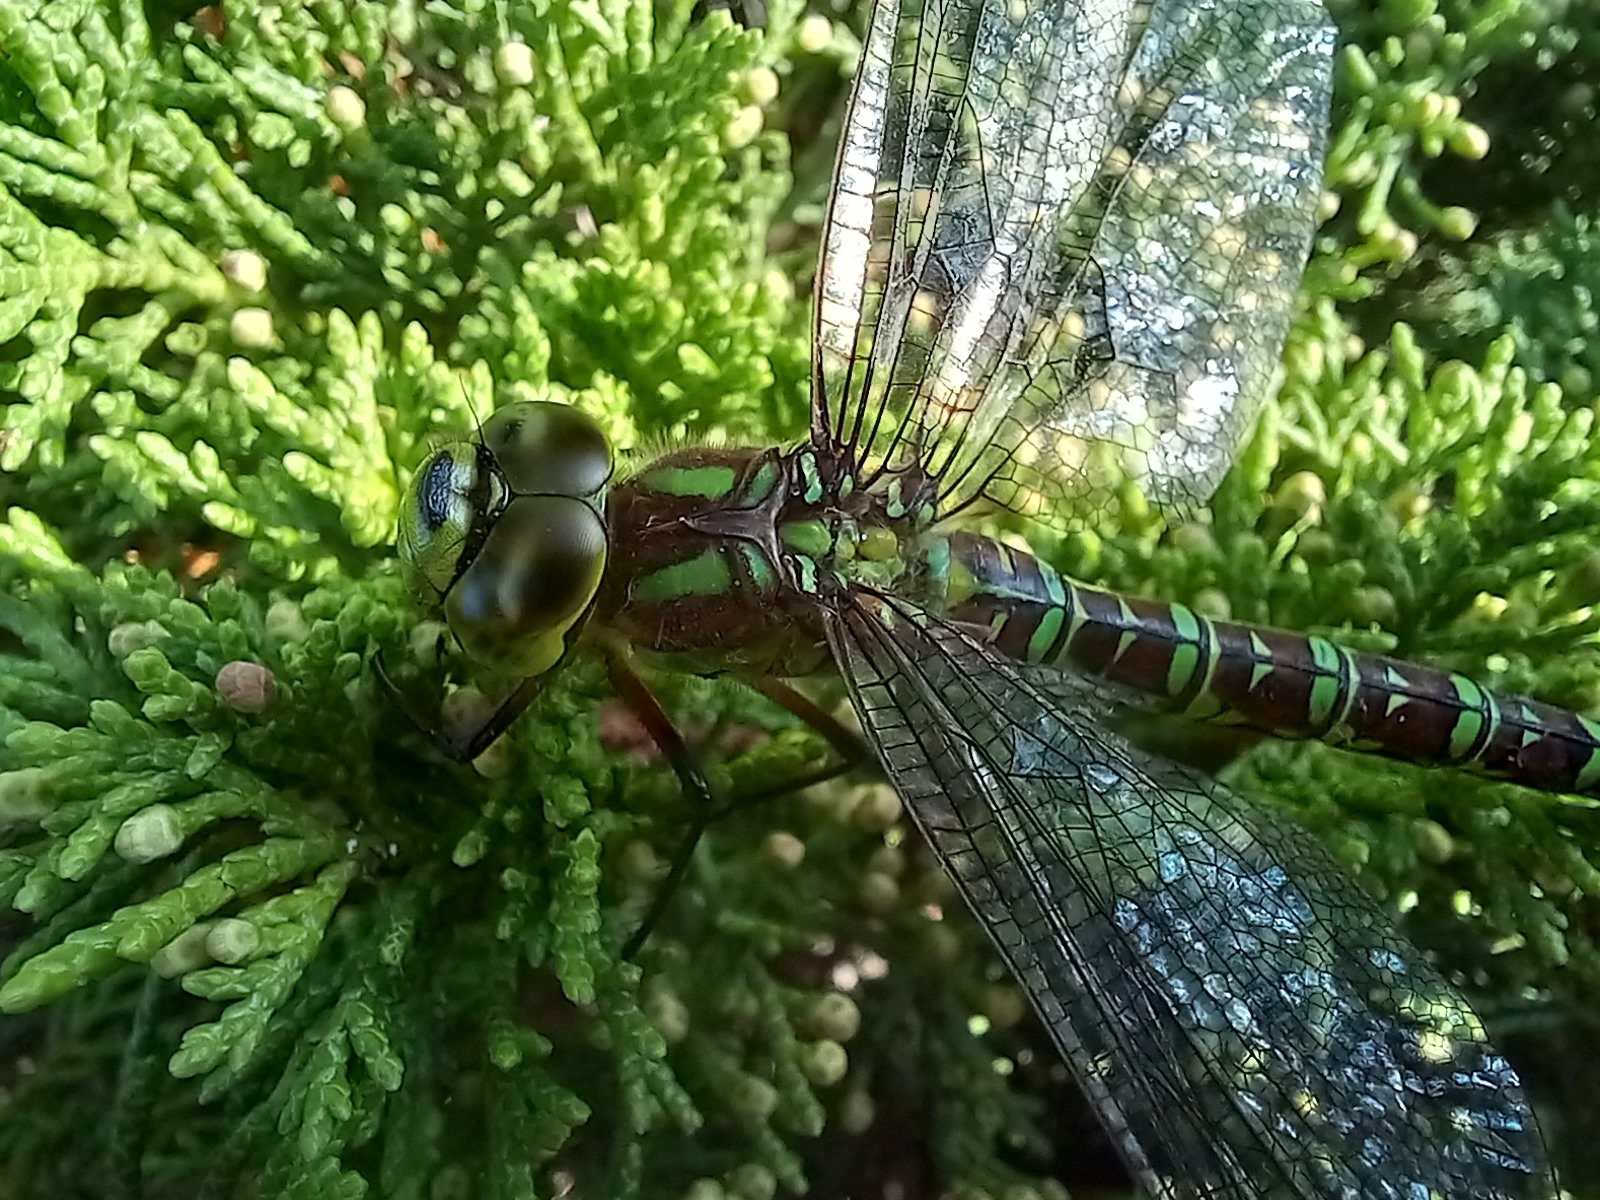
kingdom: Animalia
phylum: Arthropoda
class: Insecta
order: Odonata
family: Aeshnidae
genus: Aeshna
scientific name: Aeshna cyanea
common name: Southern hawker
